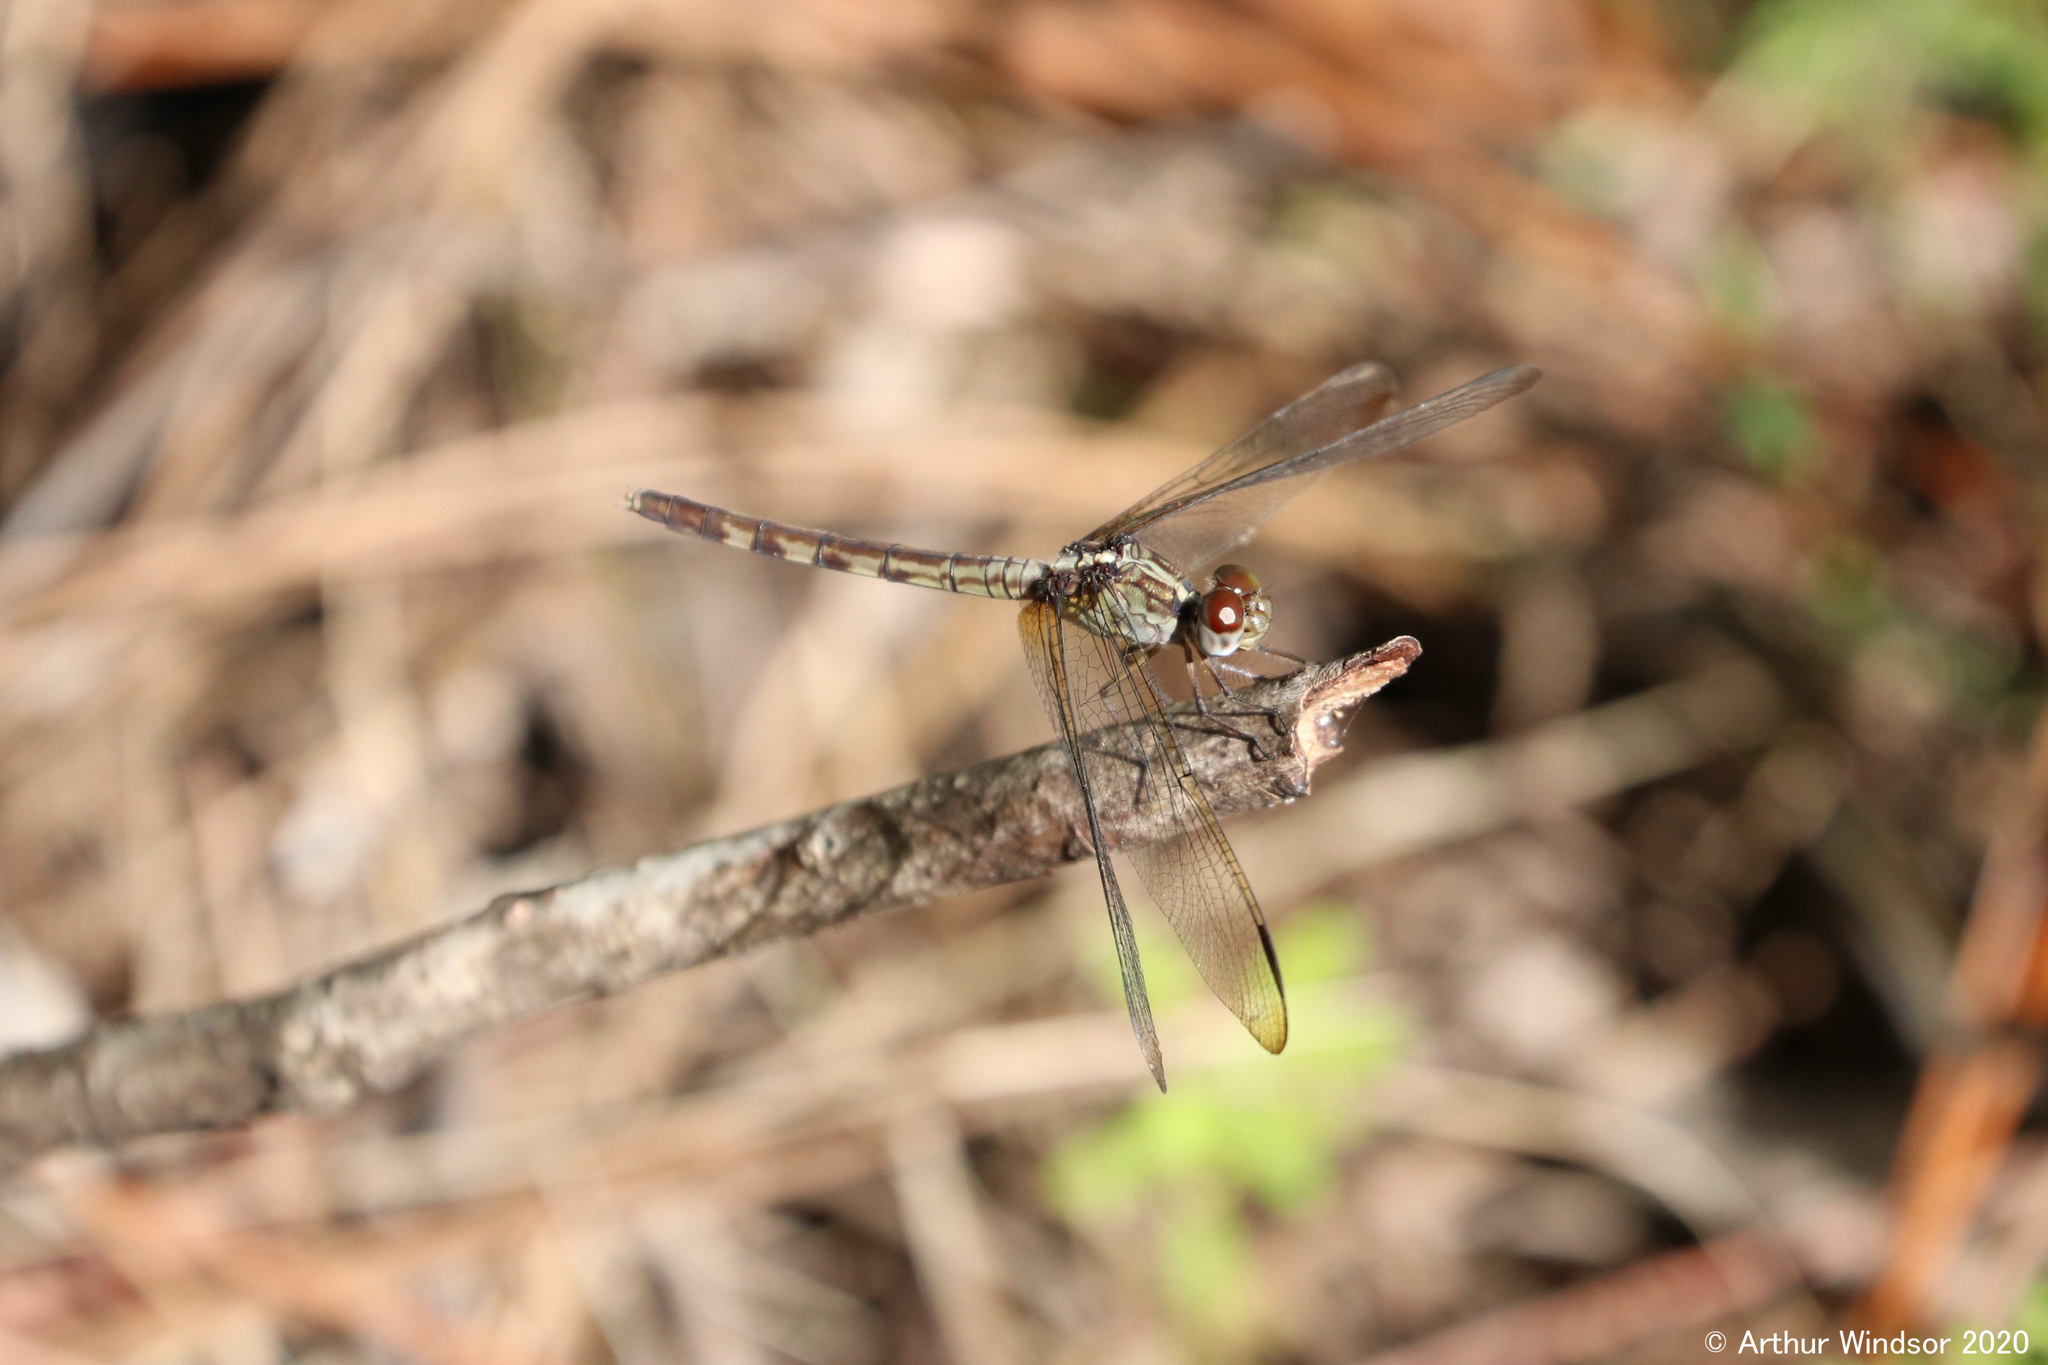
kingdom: Animalia
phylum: Arthropoda
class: Insecta
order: Odonata
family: Libellulidae
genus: Erythrodiplax
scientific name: Erythrodiplax umbrata
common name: Band-winged dragonlet
